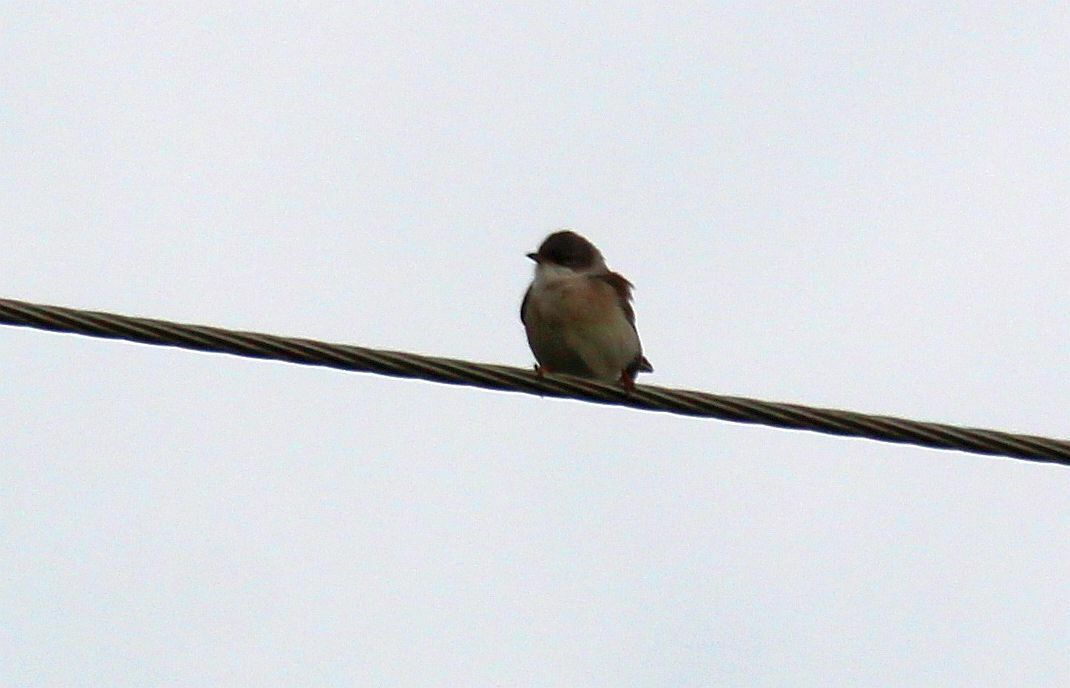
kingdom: Animalia
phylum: Chordata
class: Aves
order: Passeriformes
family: Sylviidae
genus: Sylvia
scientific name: Sylvia communis
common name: Common whitethroat
